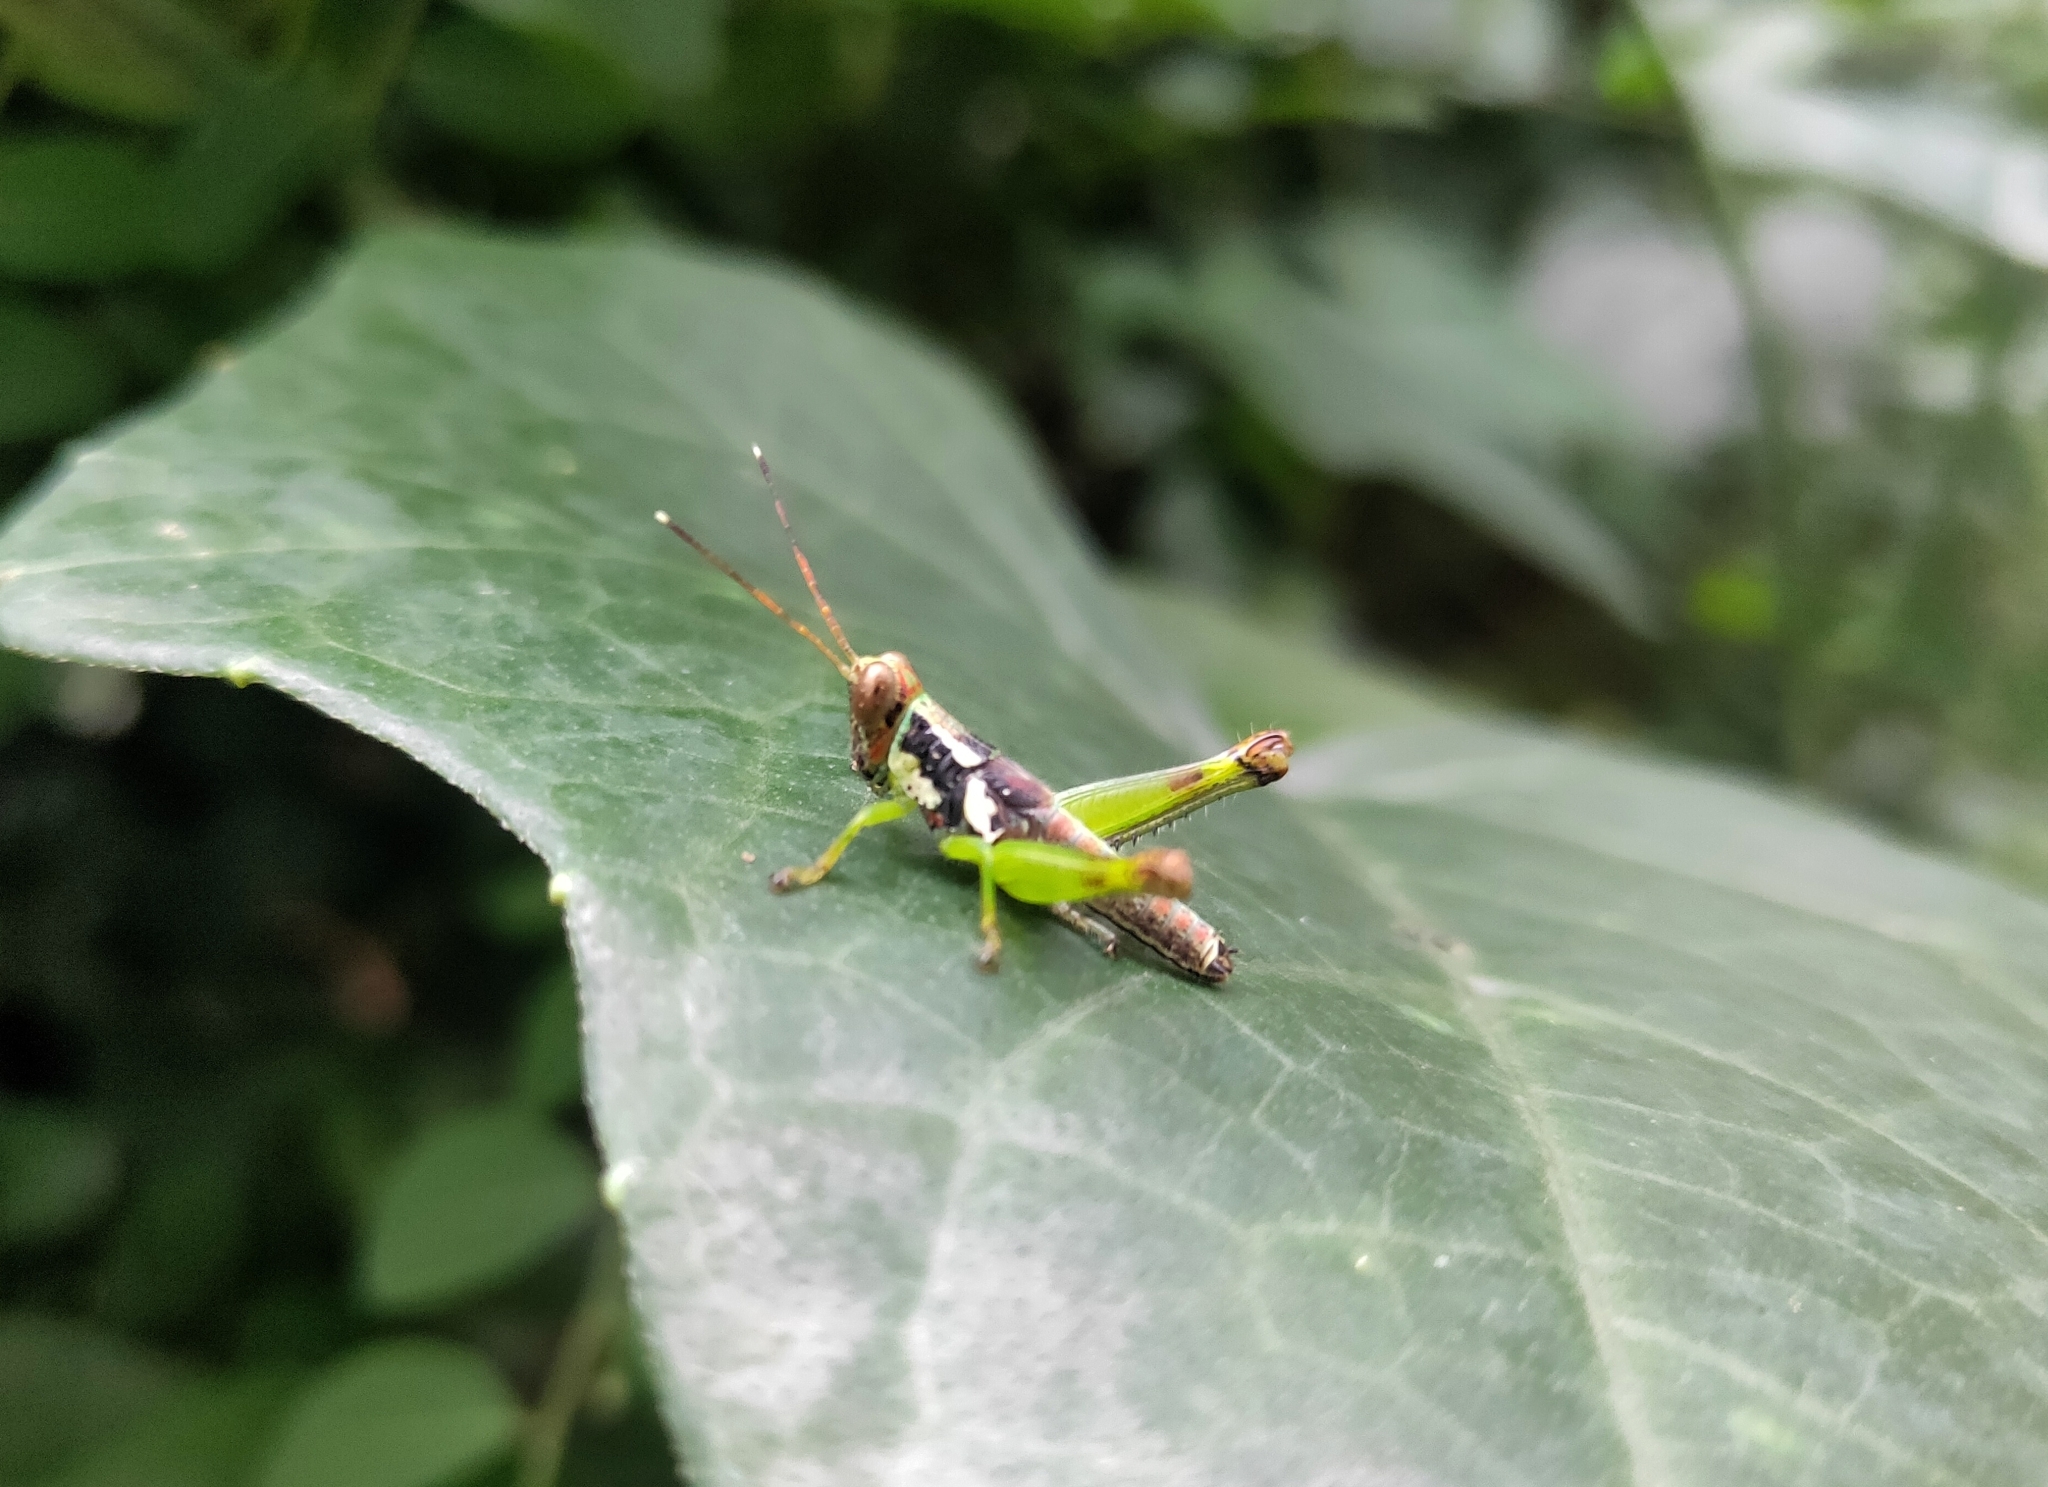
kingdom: Animalia
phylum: Arthropoda
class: Insecta
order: Orthoptera
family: Acrididae
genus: Pirithoicus
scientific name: Pirithoicus ophthalmicus
